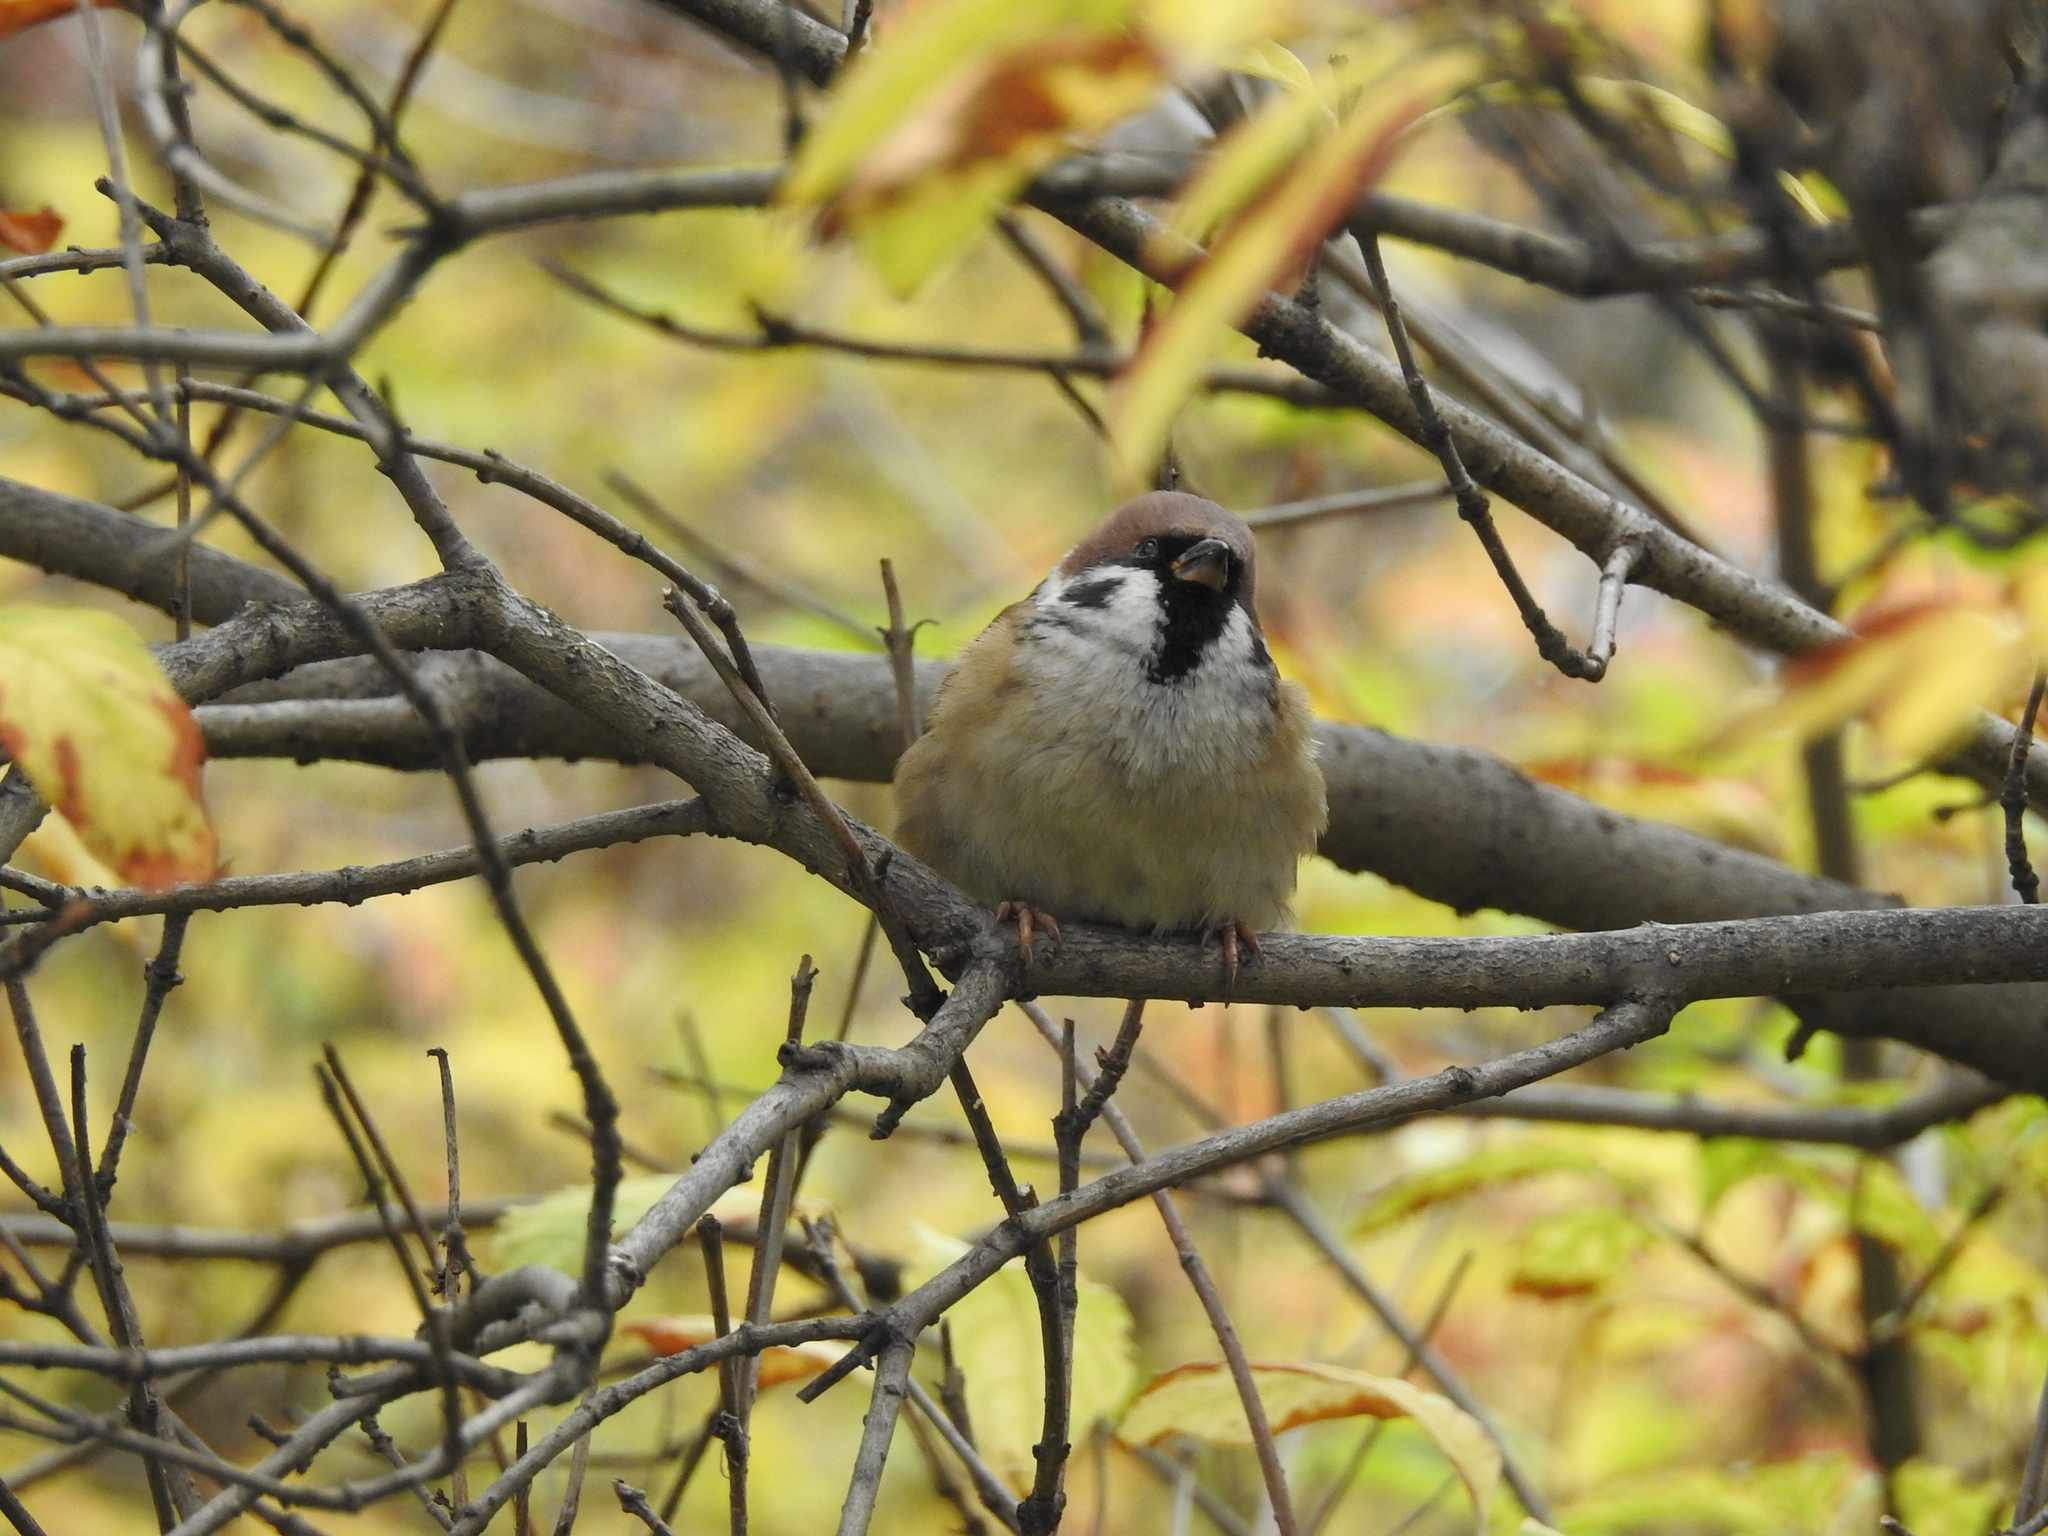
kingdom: Animalia
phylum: Chordata
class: Aves
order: Passeriformes
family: Passeridae
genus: Passer
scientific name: Passer montanus
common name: Eurasian tree sparrow
